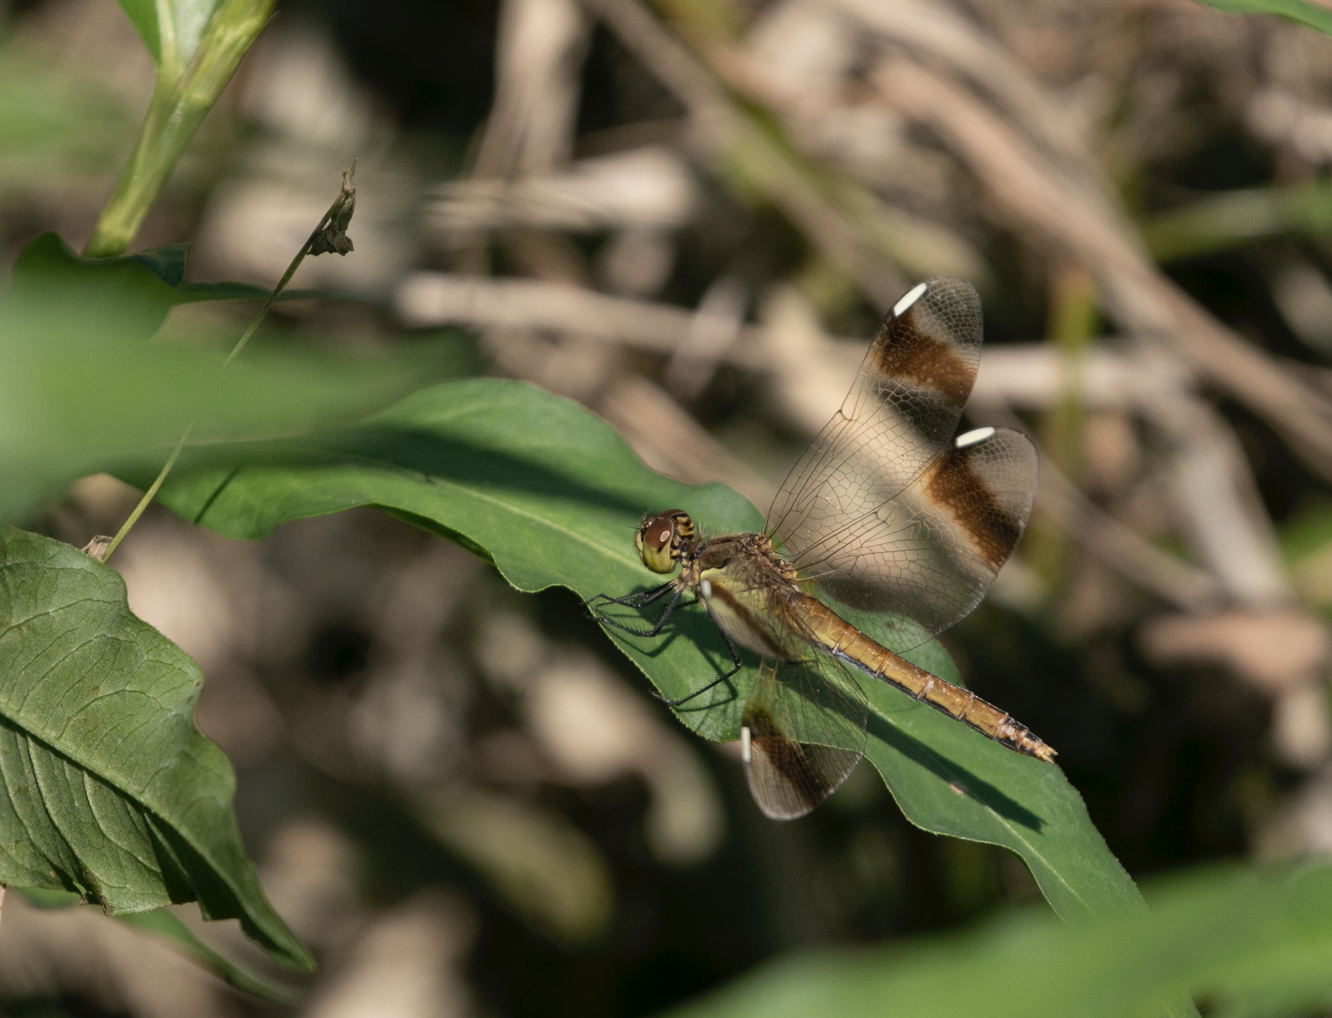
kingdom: Animalia
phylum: Arthropoda
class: Insecta
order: Odonata
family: Libellulidae
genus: Sympetrum
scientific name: Sympetrum pedemontanum
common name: Banded darter
